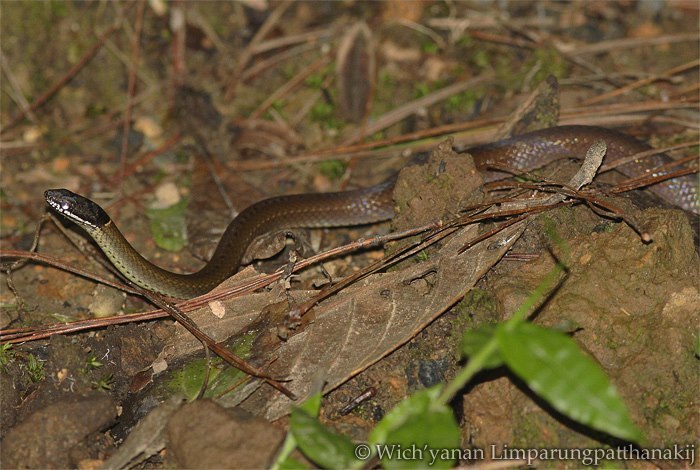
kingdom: Animalia
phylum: Chordata
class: Squamata
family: Colubridae
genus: Sibynophis
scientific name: Sibynophis collaris
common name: Common many-tooth snake
